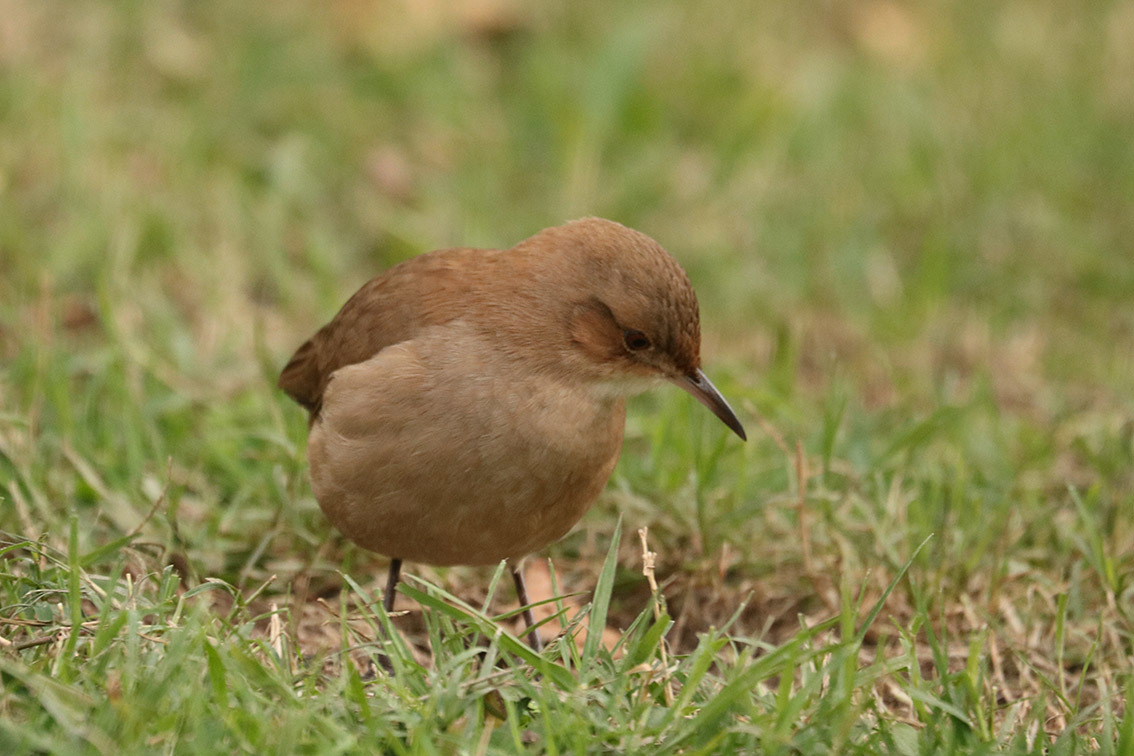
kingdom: Animalia
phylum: Chordata
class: Aves
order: Passeriformes
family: Furnariidae
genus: Furnarius
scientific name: Furnarius rufus
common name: Rufous hornero
